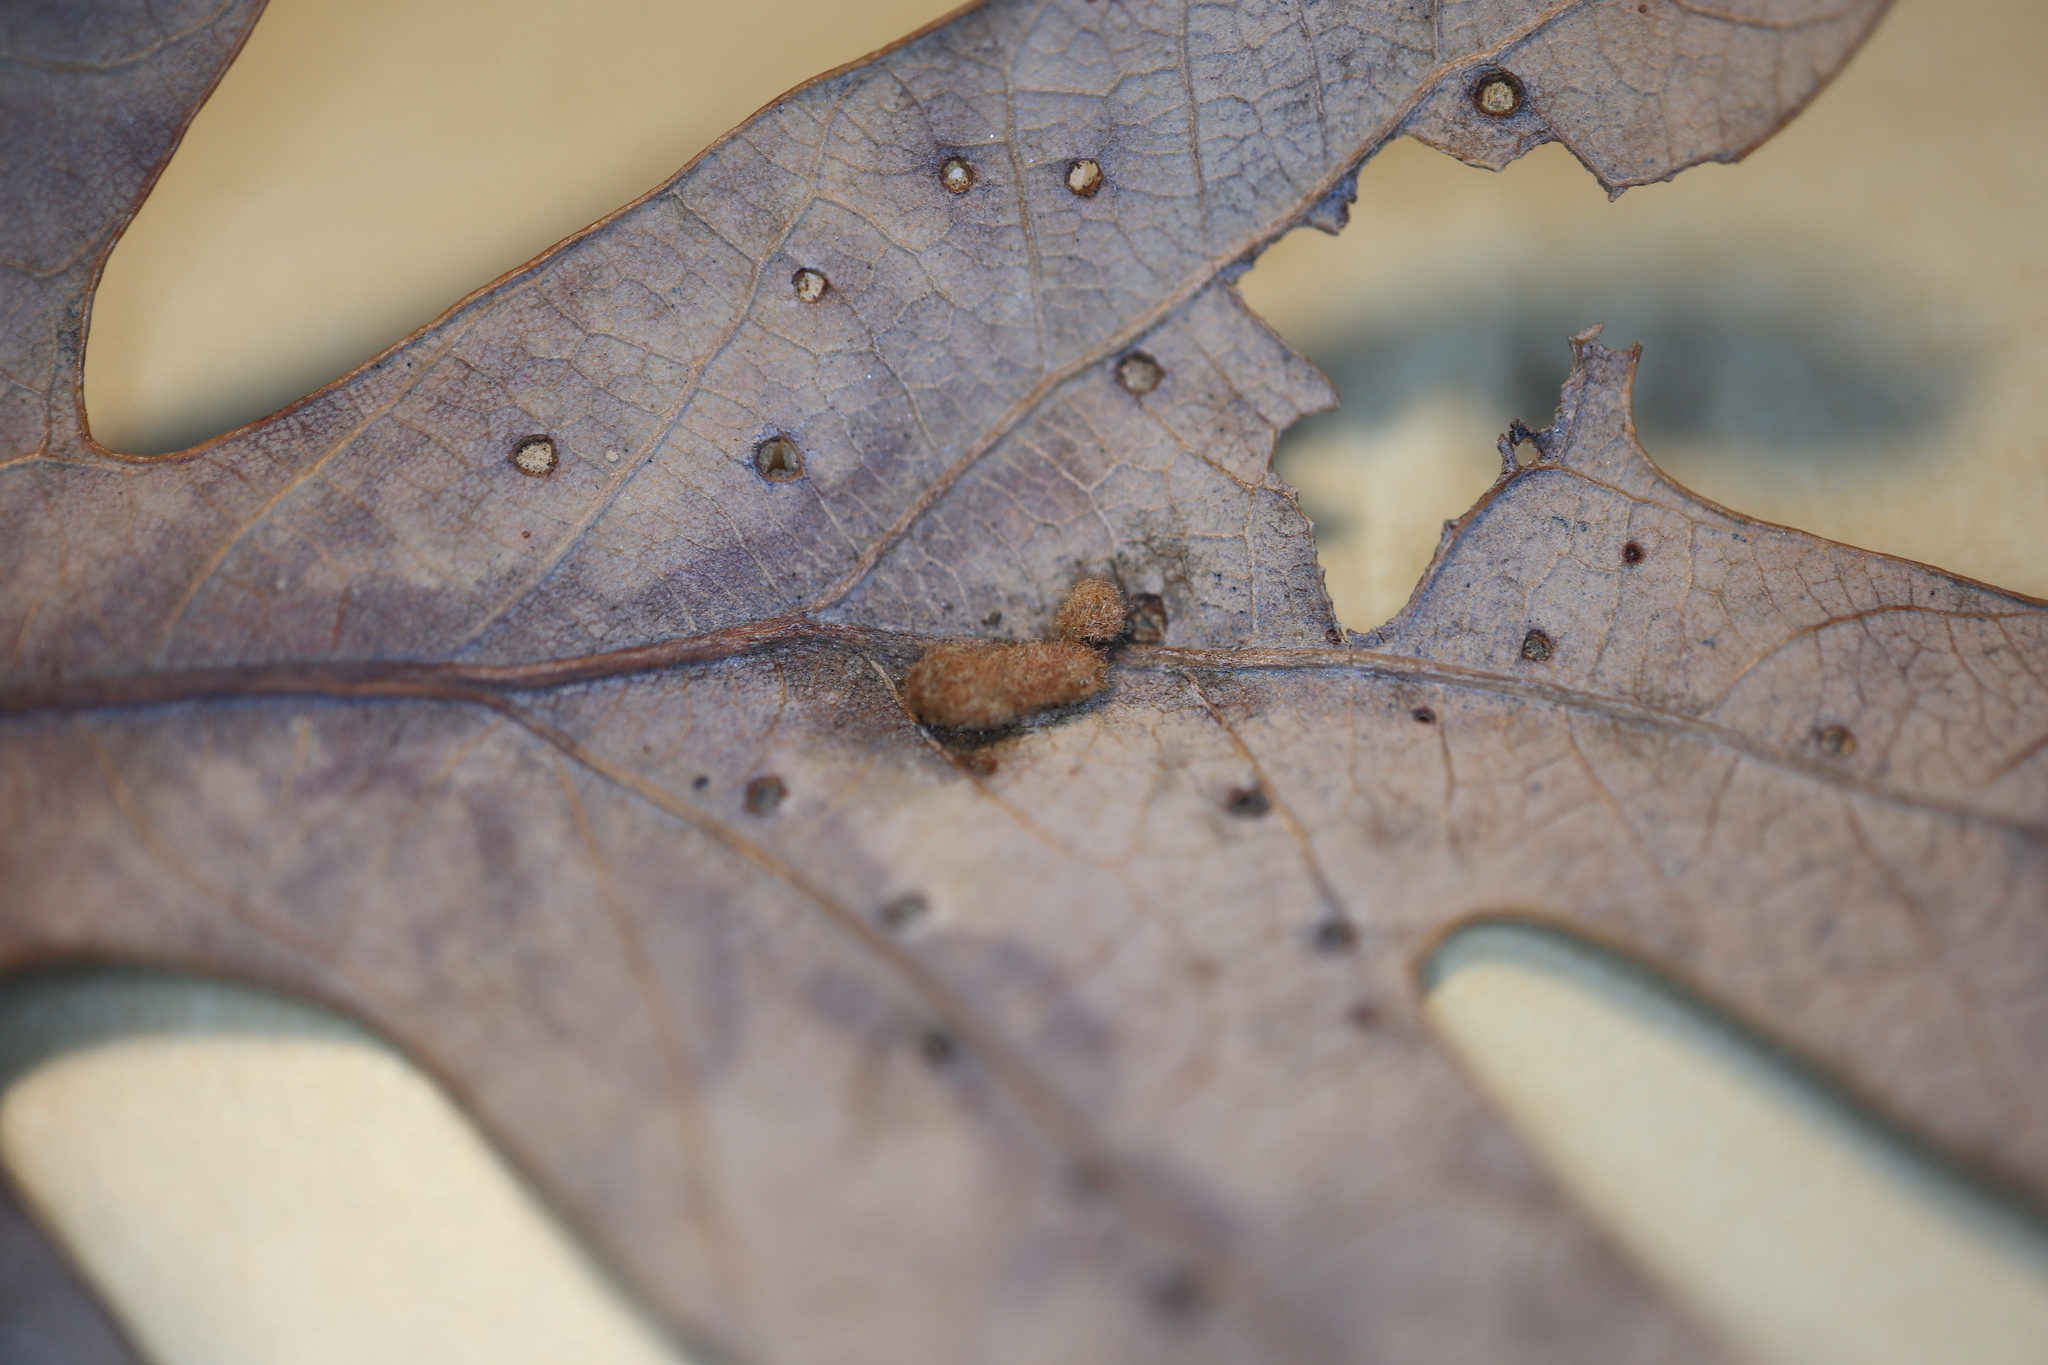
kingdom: Animalia
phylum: Arthropoda
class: Insecta
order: Hymenoptera
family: Cynipidae
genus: Neuroterus
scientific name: Neuroterus quercusverrucarum
